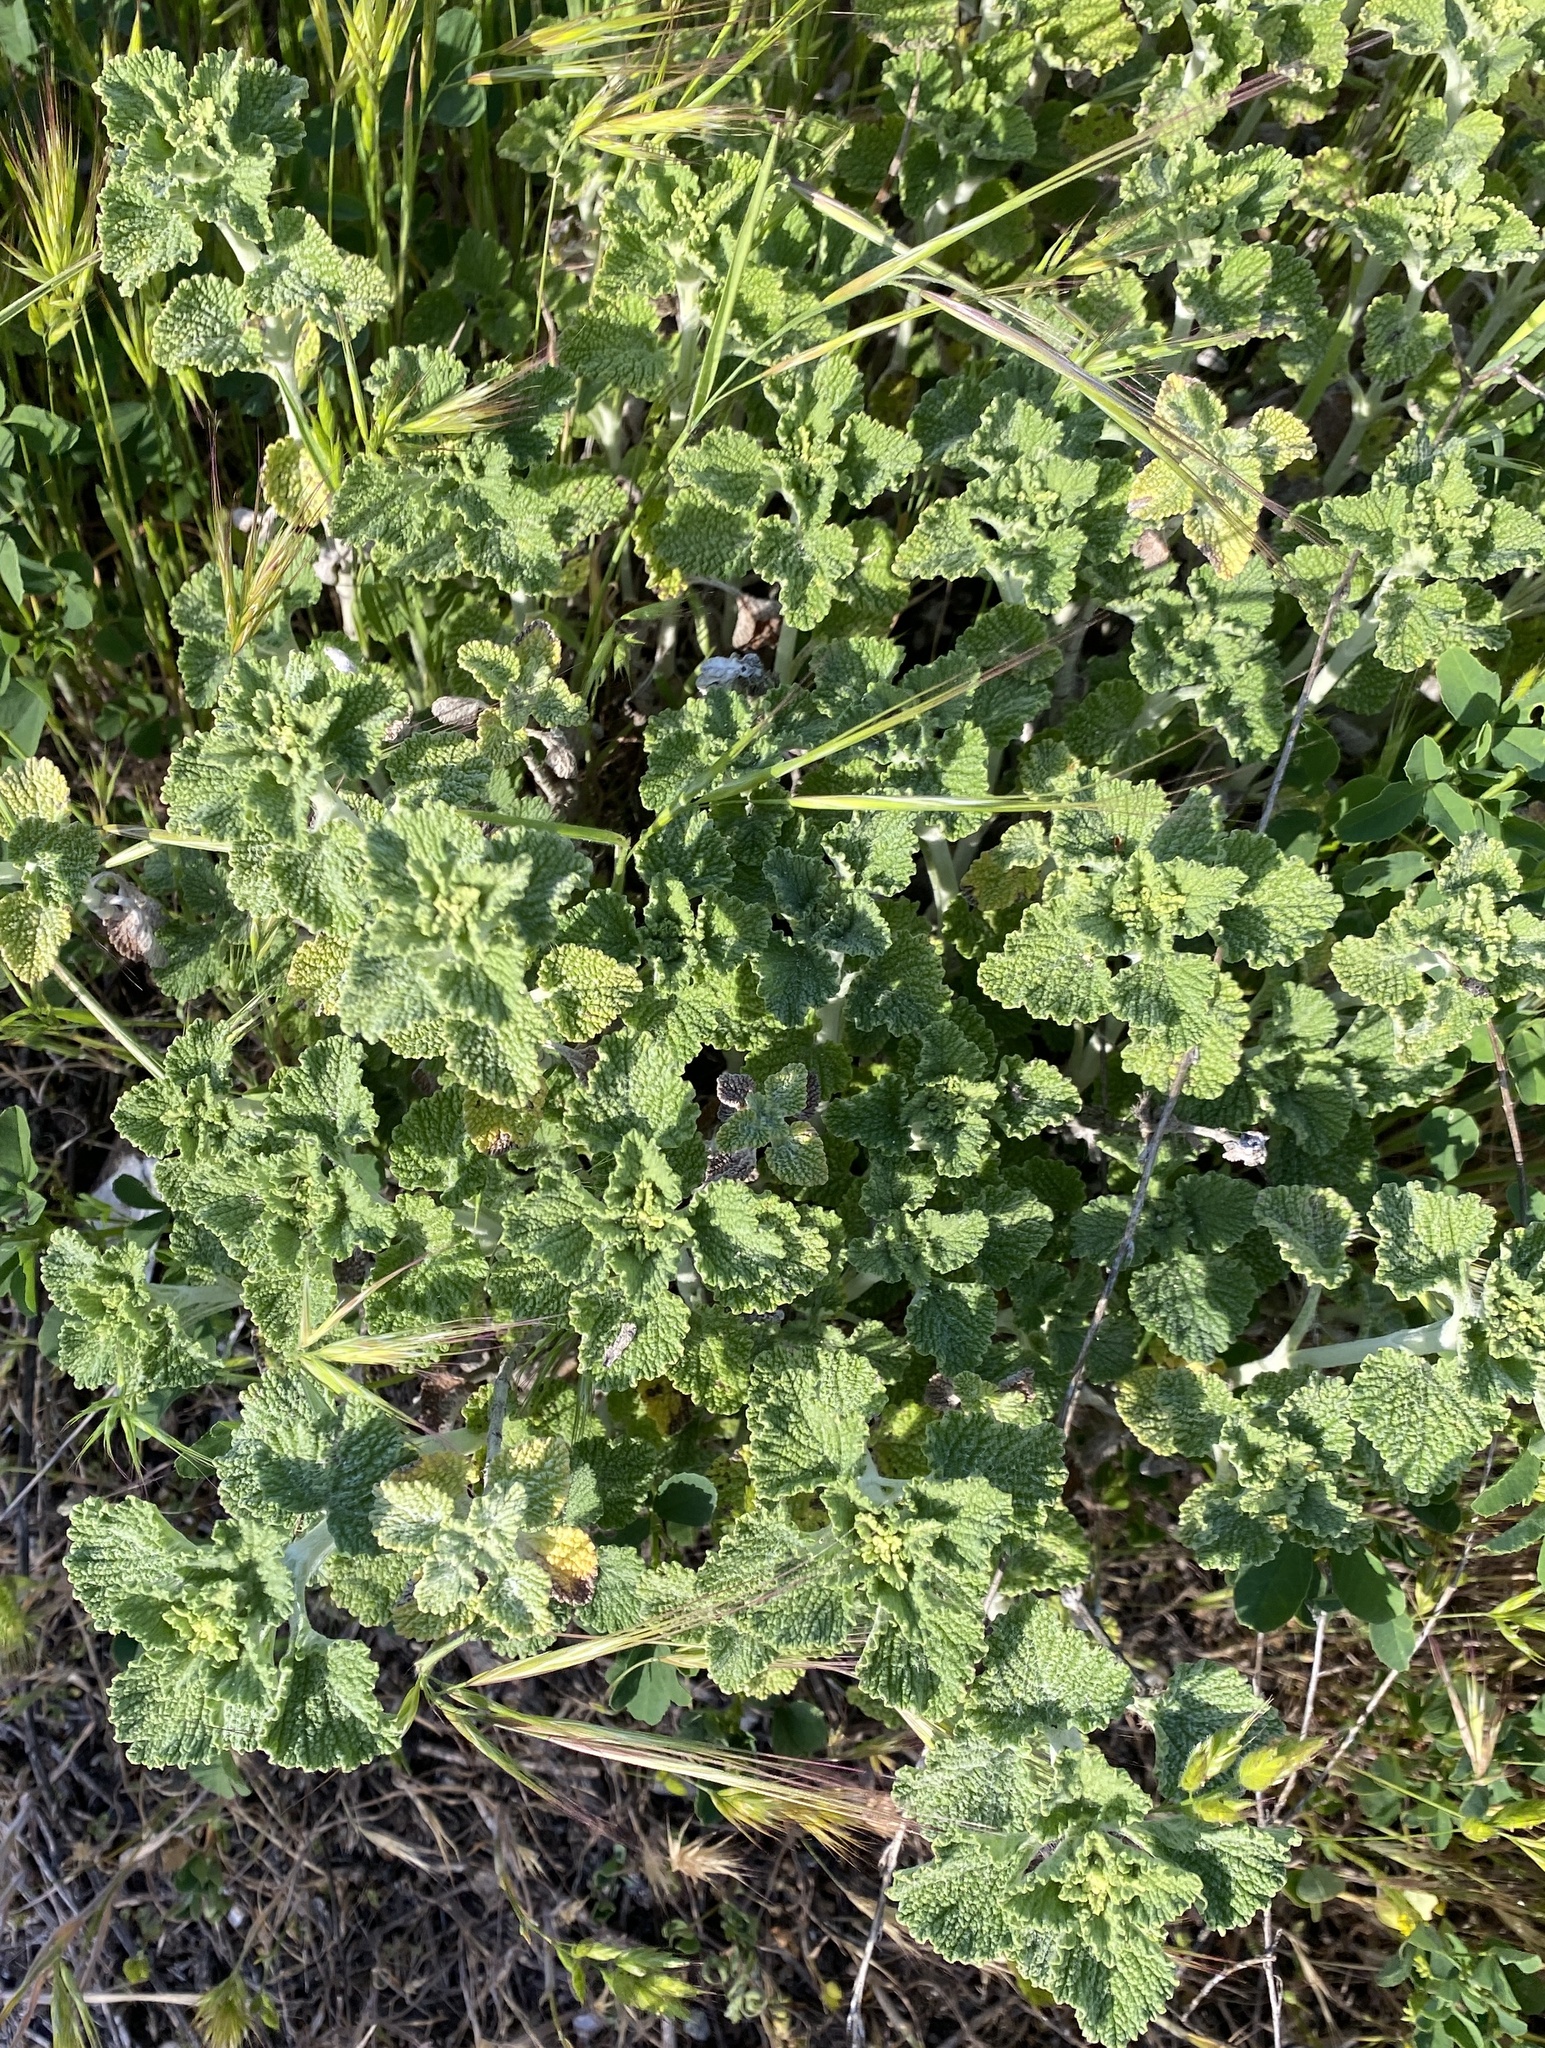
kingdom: Plantae
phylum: Tracheophyta
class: Magnoliopsida
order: Lamiales
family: Lamiaceae
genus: Marrubium
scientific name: Marrubium vulgare
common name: Horehound
